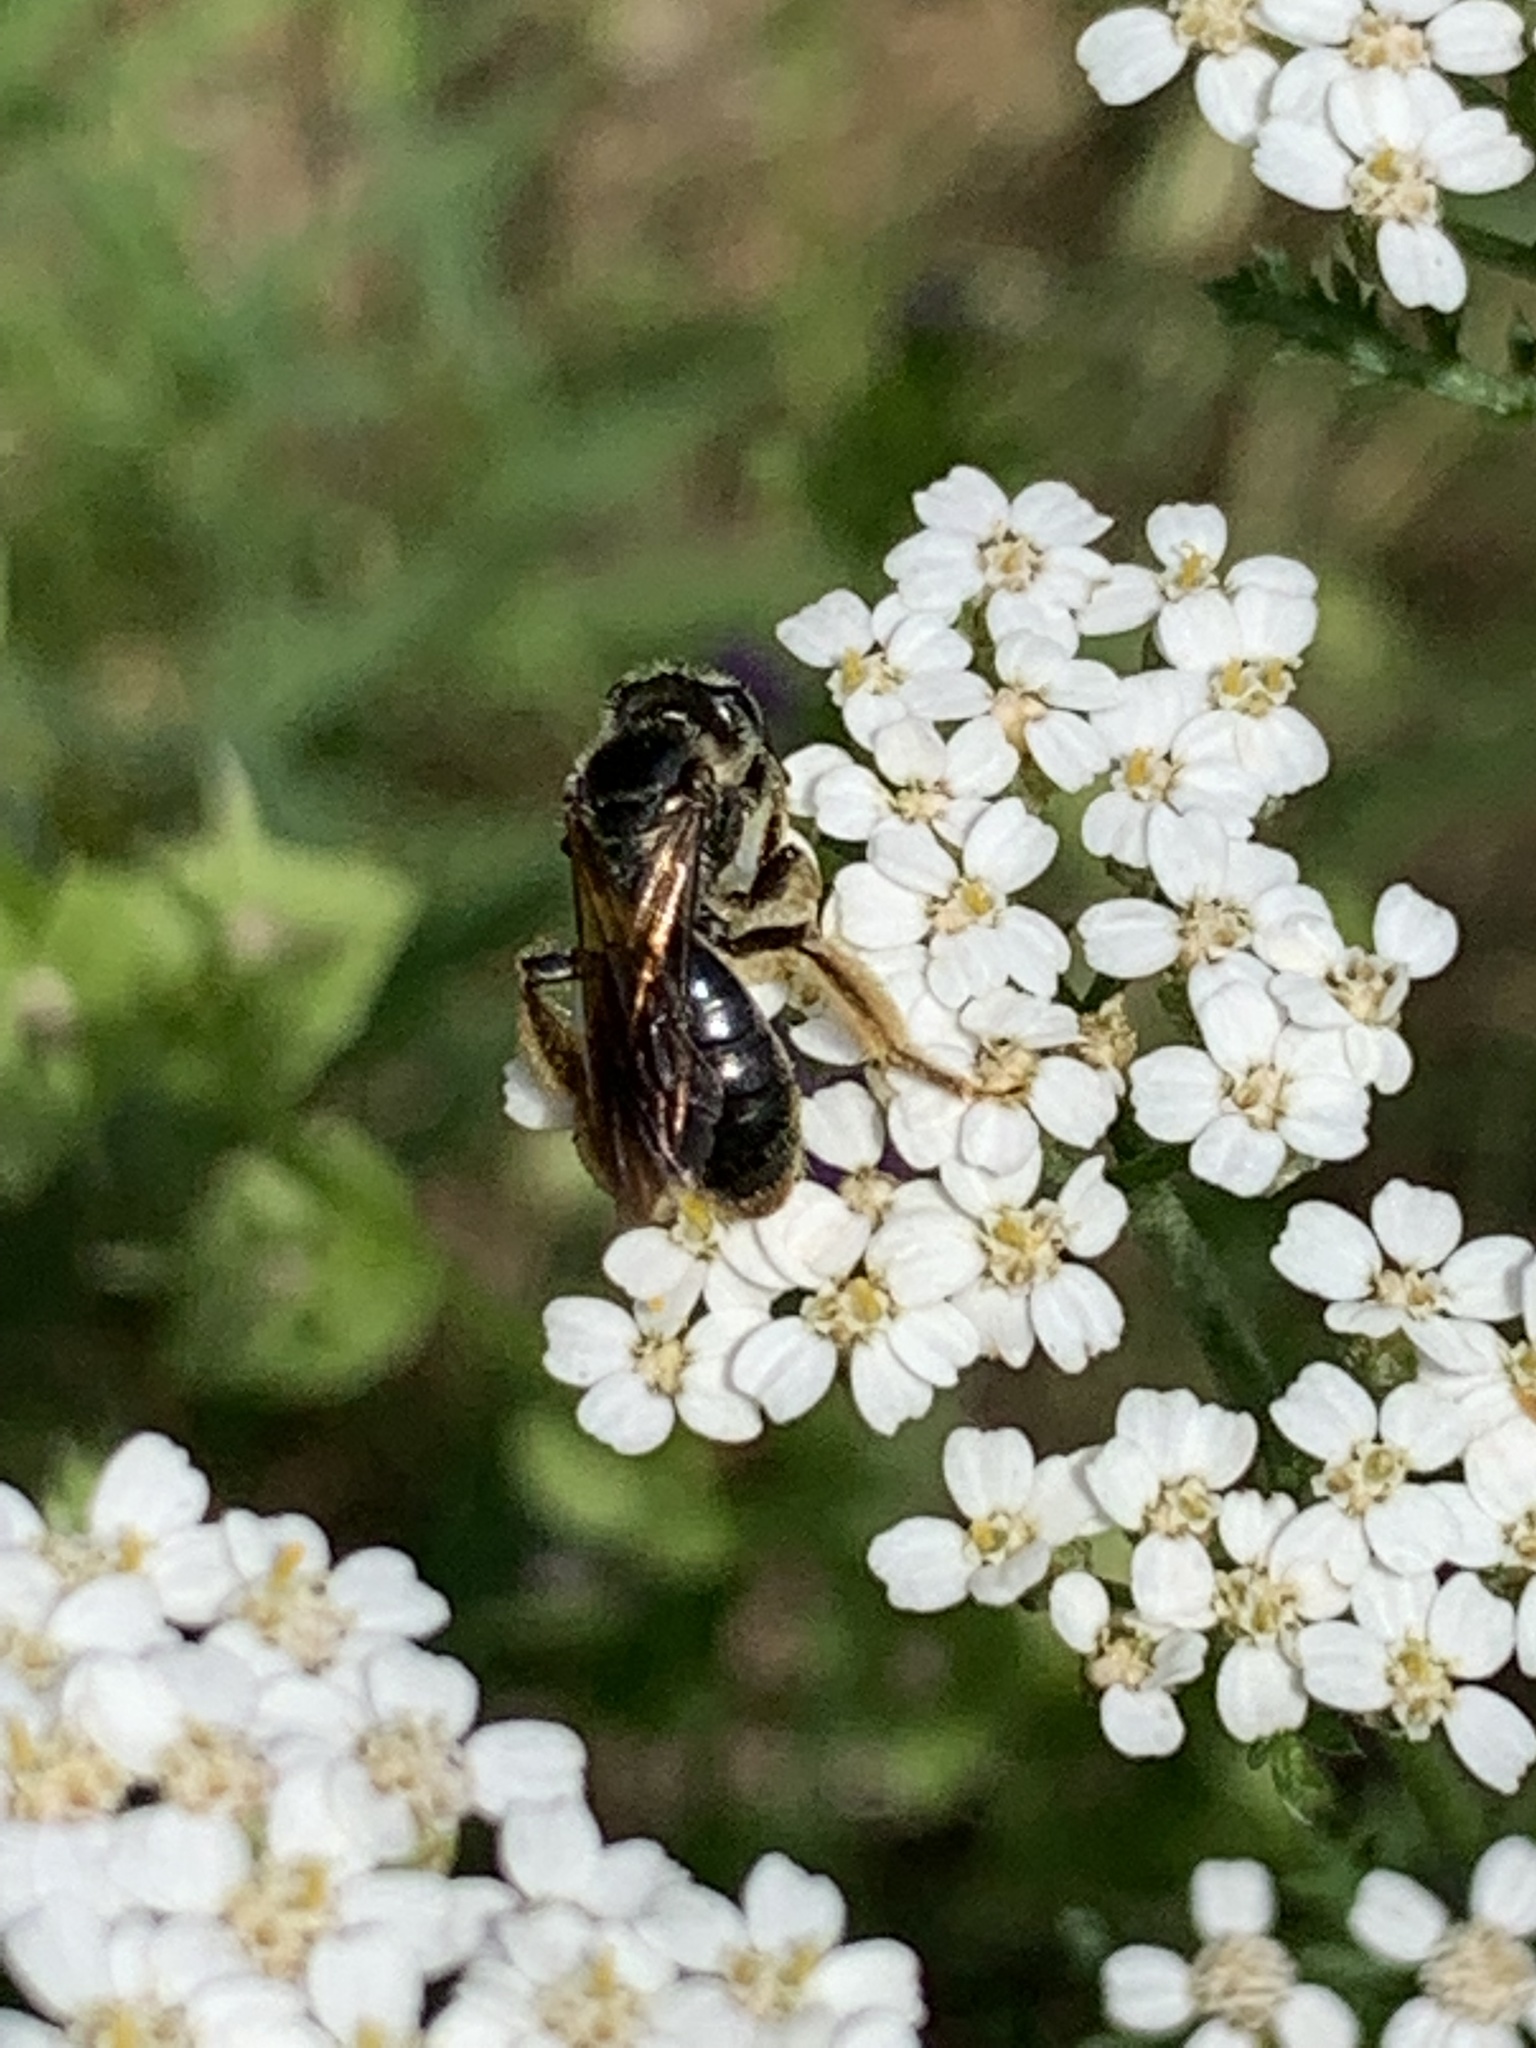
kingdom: Animalia
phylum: Arthropoda
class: Insecta
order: Hymenoptera
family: Andrenidae
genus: Andrena
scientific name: Andrena crataegi
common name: Hawthorn mining bee
